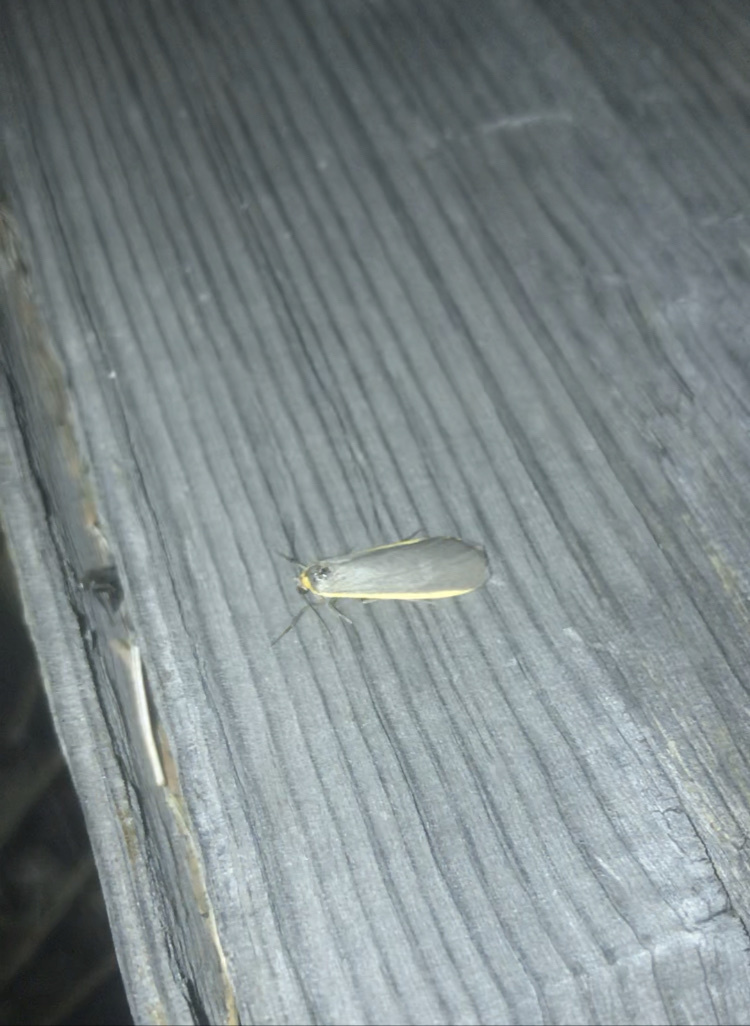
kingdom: Animalia
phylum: Arthropoda
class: Insecta
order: Lepidoptera
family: Erebidae
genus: Manulea
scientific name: Manulea bicolor
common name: Bicolored moth
